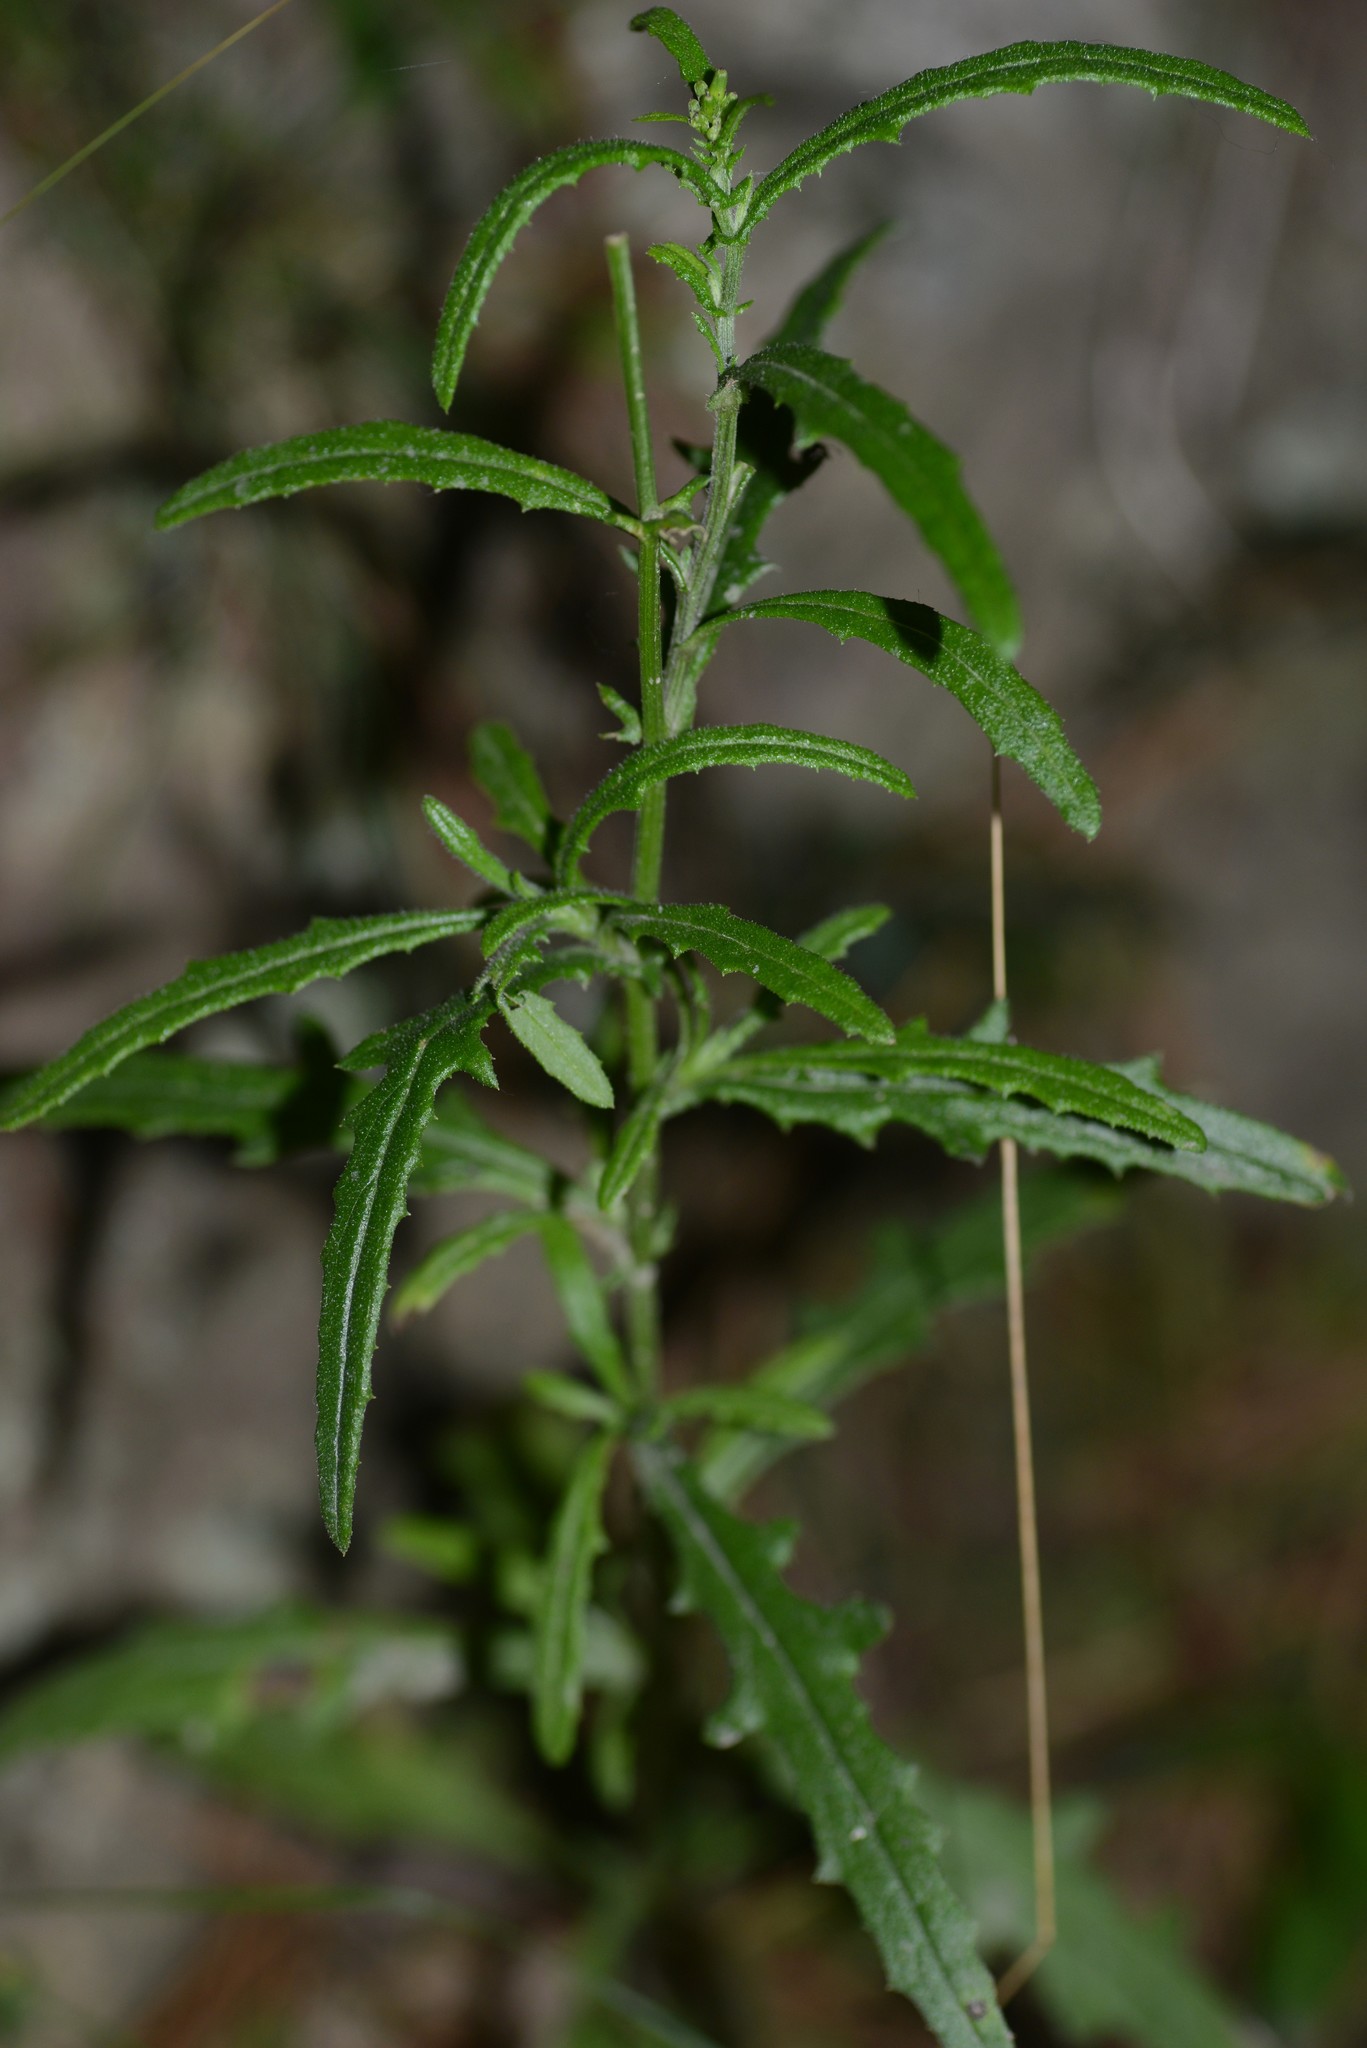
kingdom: Plantae
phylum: Tracheophyta
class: Magnoliopsida
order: Asterales
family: Asteraceae
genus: Senecio
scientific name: Senecio hispidulus
